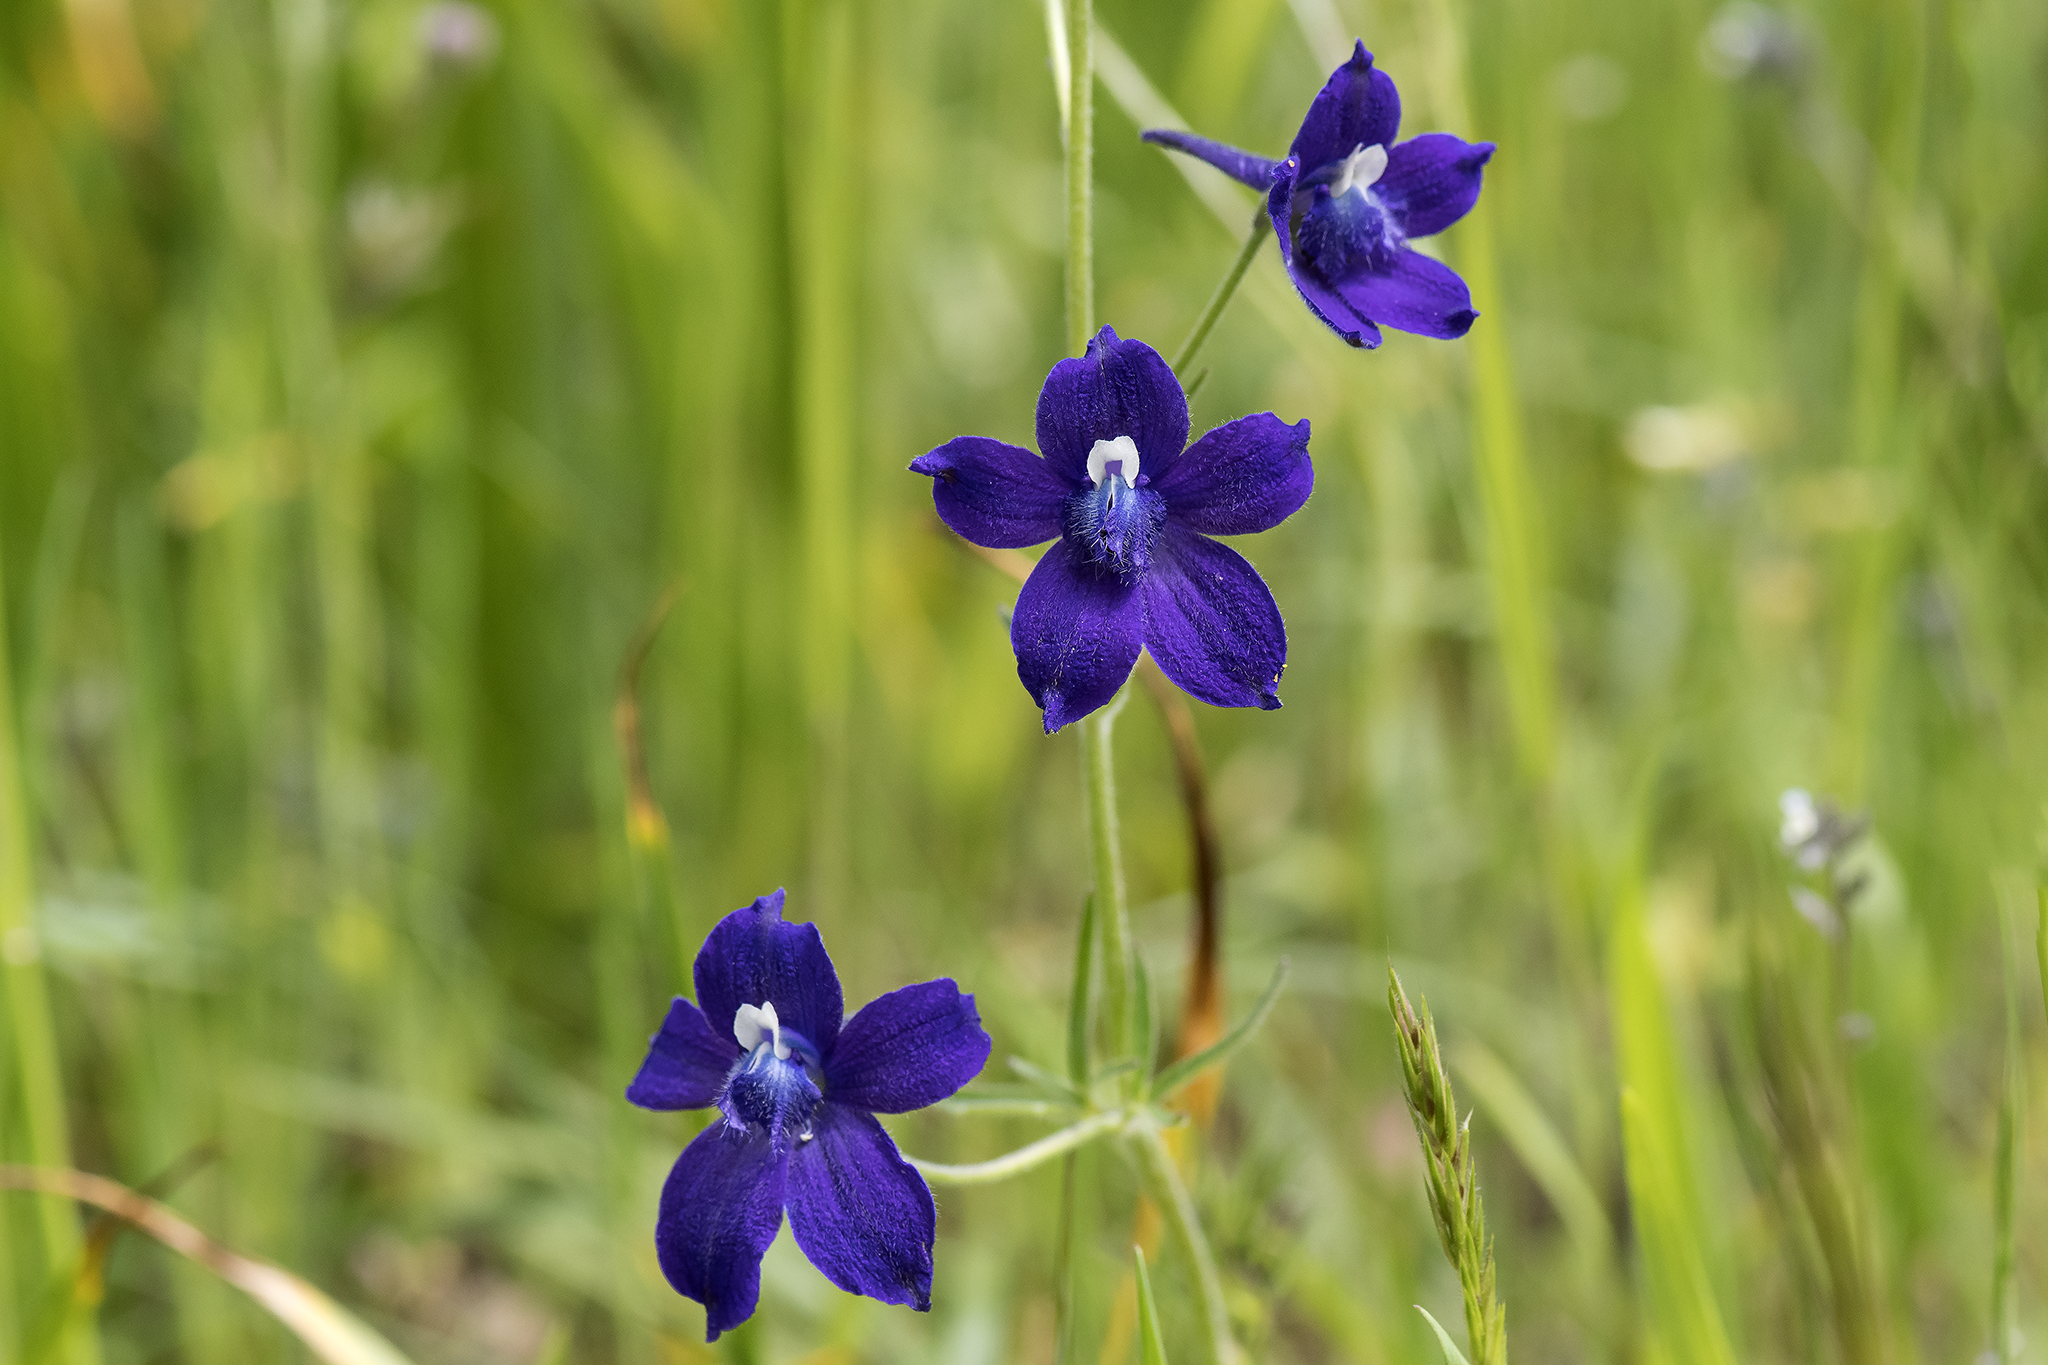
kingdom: Plantae
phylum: Tracheophyta
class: Magnoliopsida
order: Ranunculales
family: Ranunculaceae
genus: Delphinium
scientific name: Delphinium menziesii
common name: Menzies's larkspur
